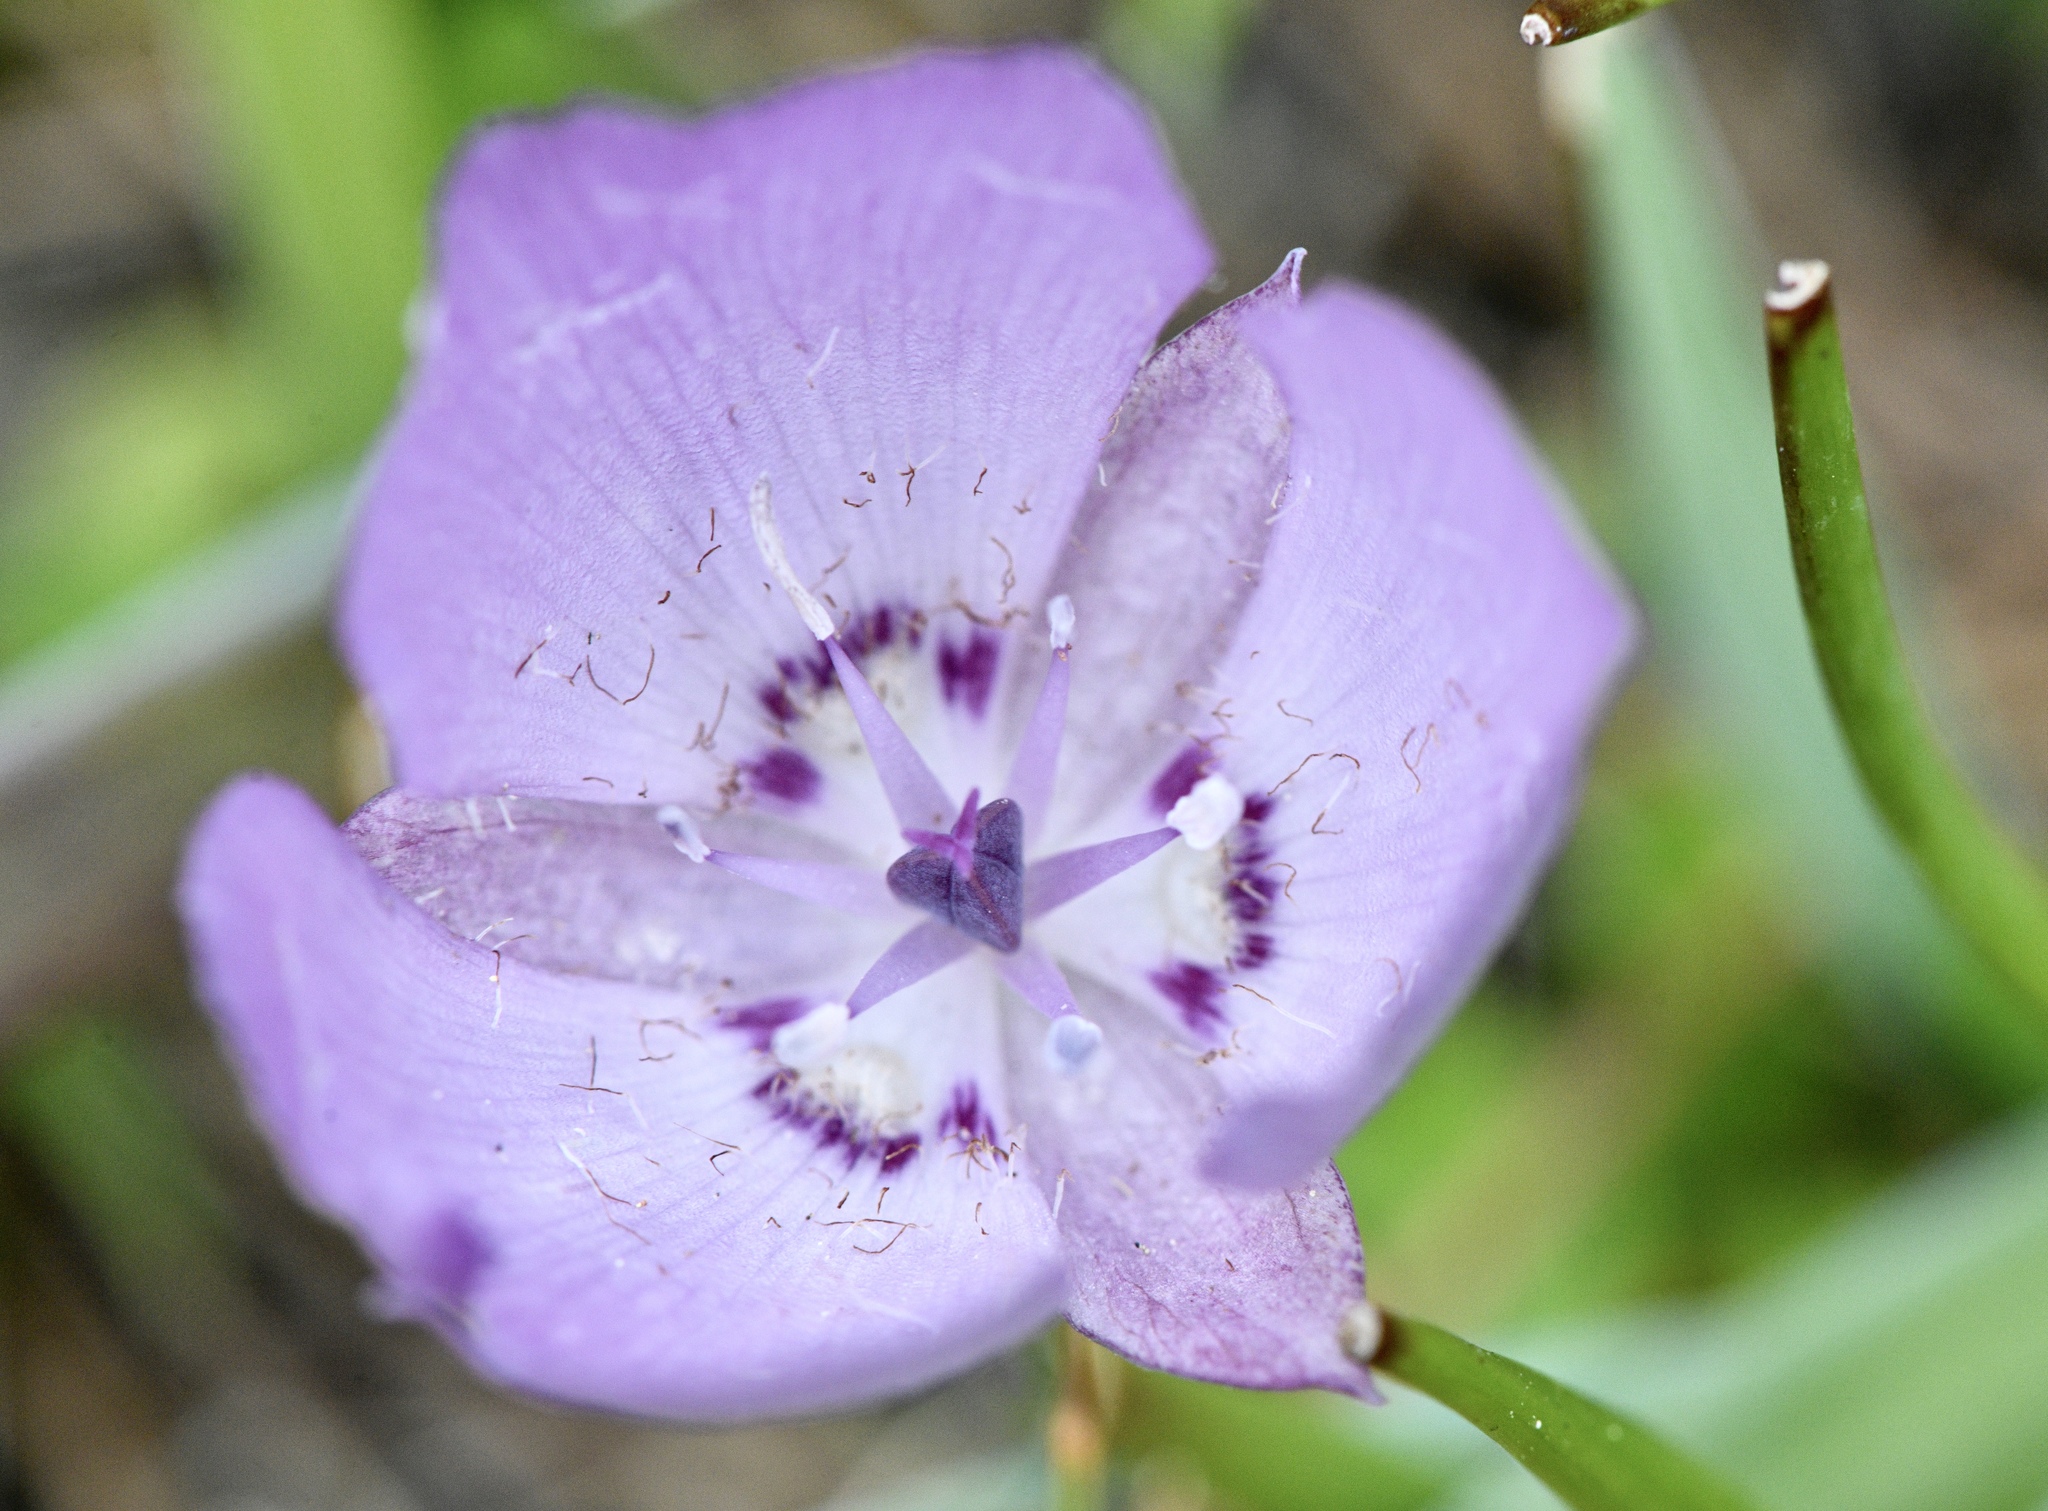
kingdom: Plantae
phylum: Tracheophyta
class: Liliopsida
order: Liliales
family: Liliaceae
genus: Calochortus
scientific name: Calochortus uniflorus
